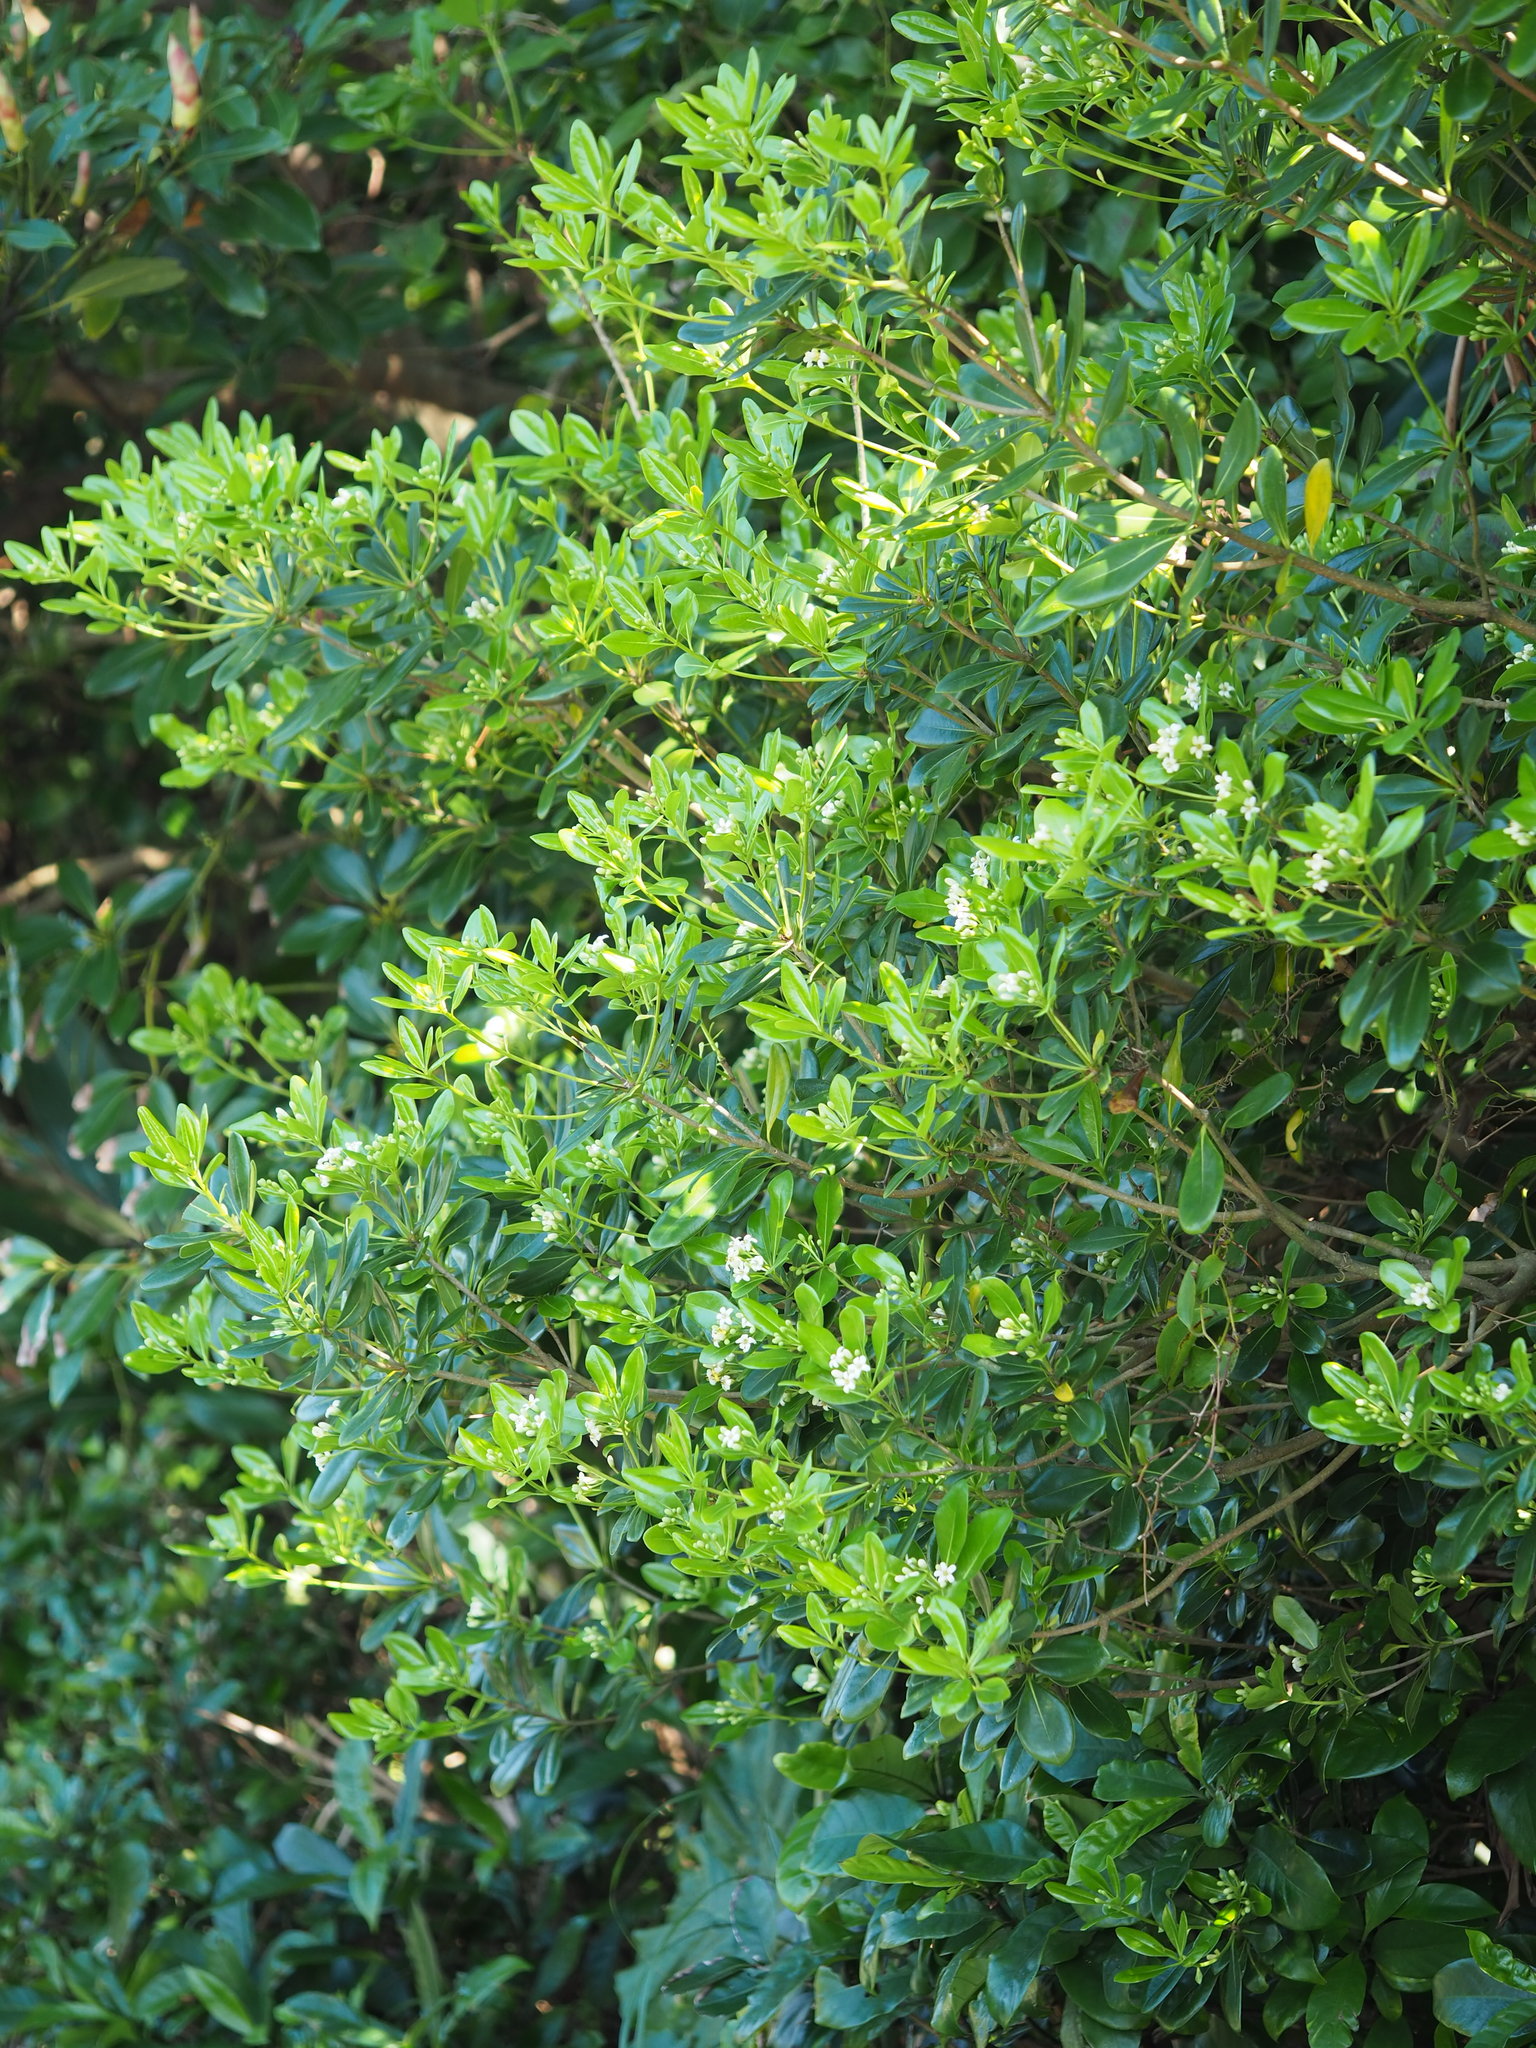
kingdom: Plantae
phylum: Tracheophyta
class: Magnoliopsida
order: Apiales
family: Pittosporaceae
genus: Pittosporum
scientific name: Pittosporum tobira
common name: Japanese cheesewood
